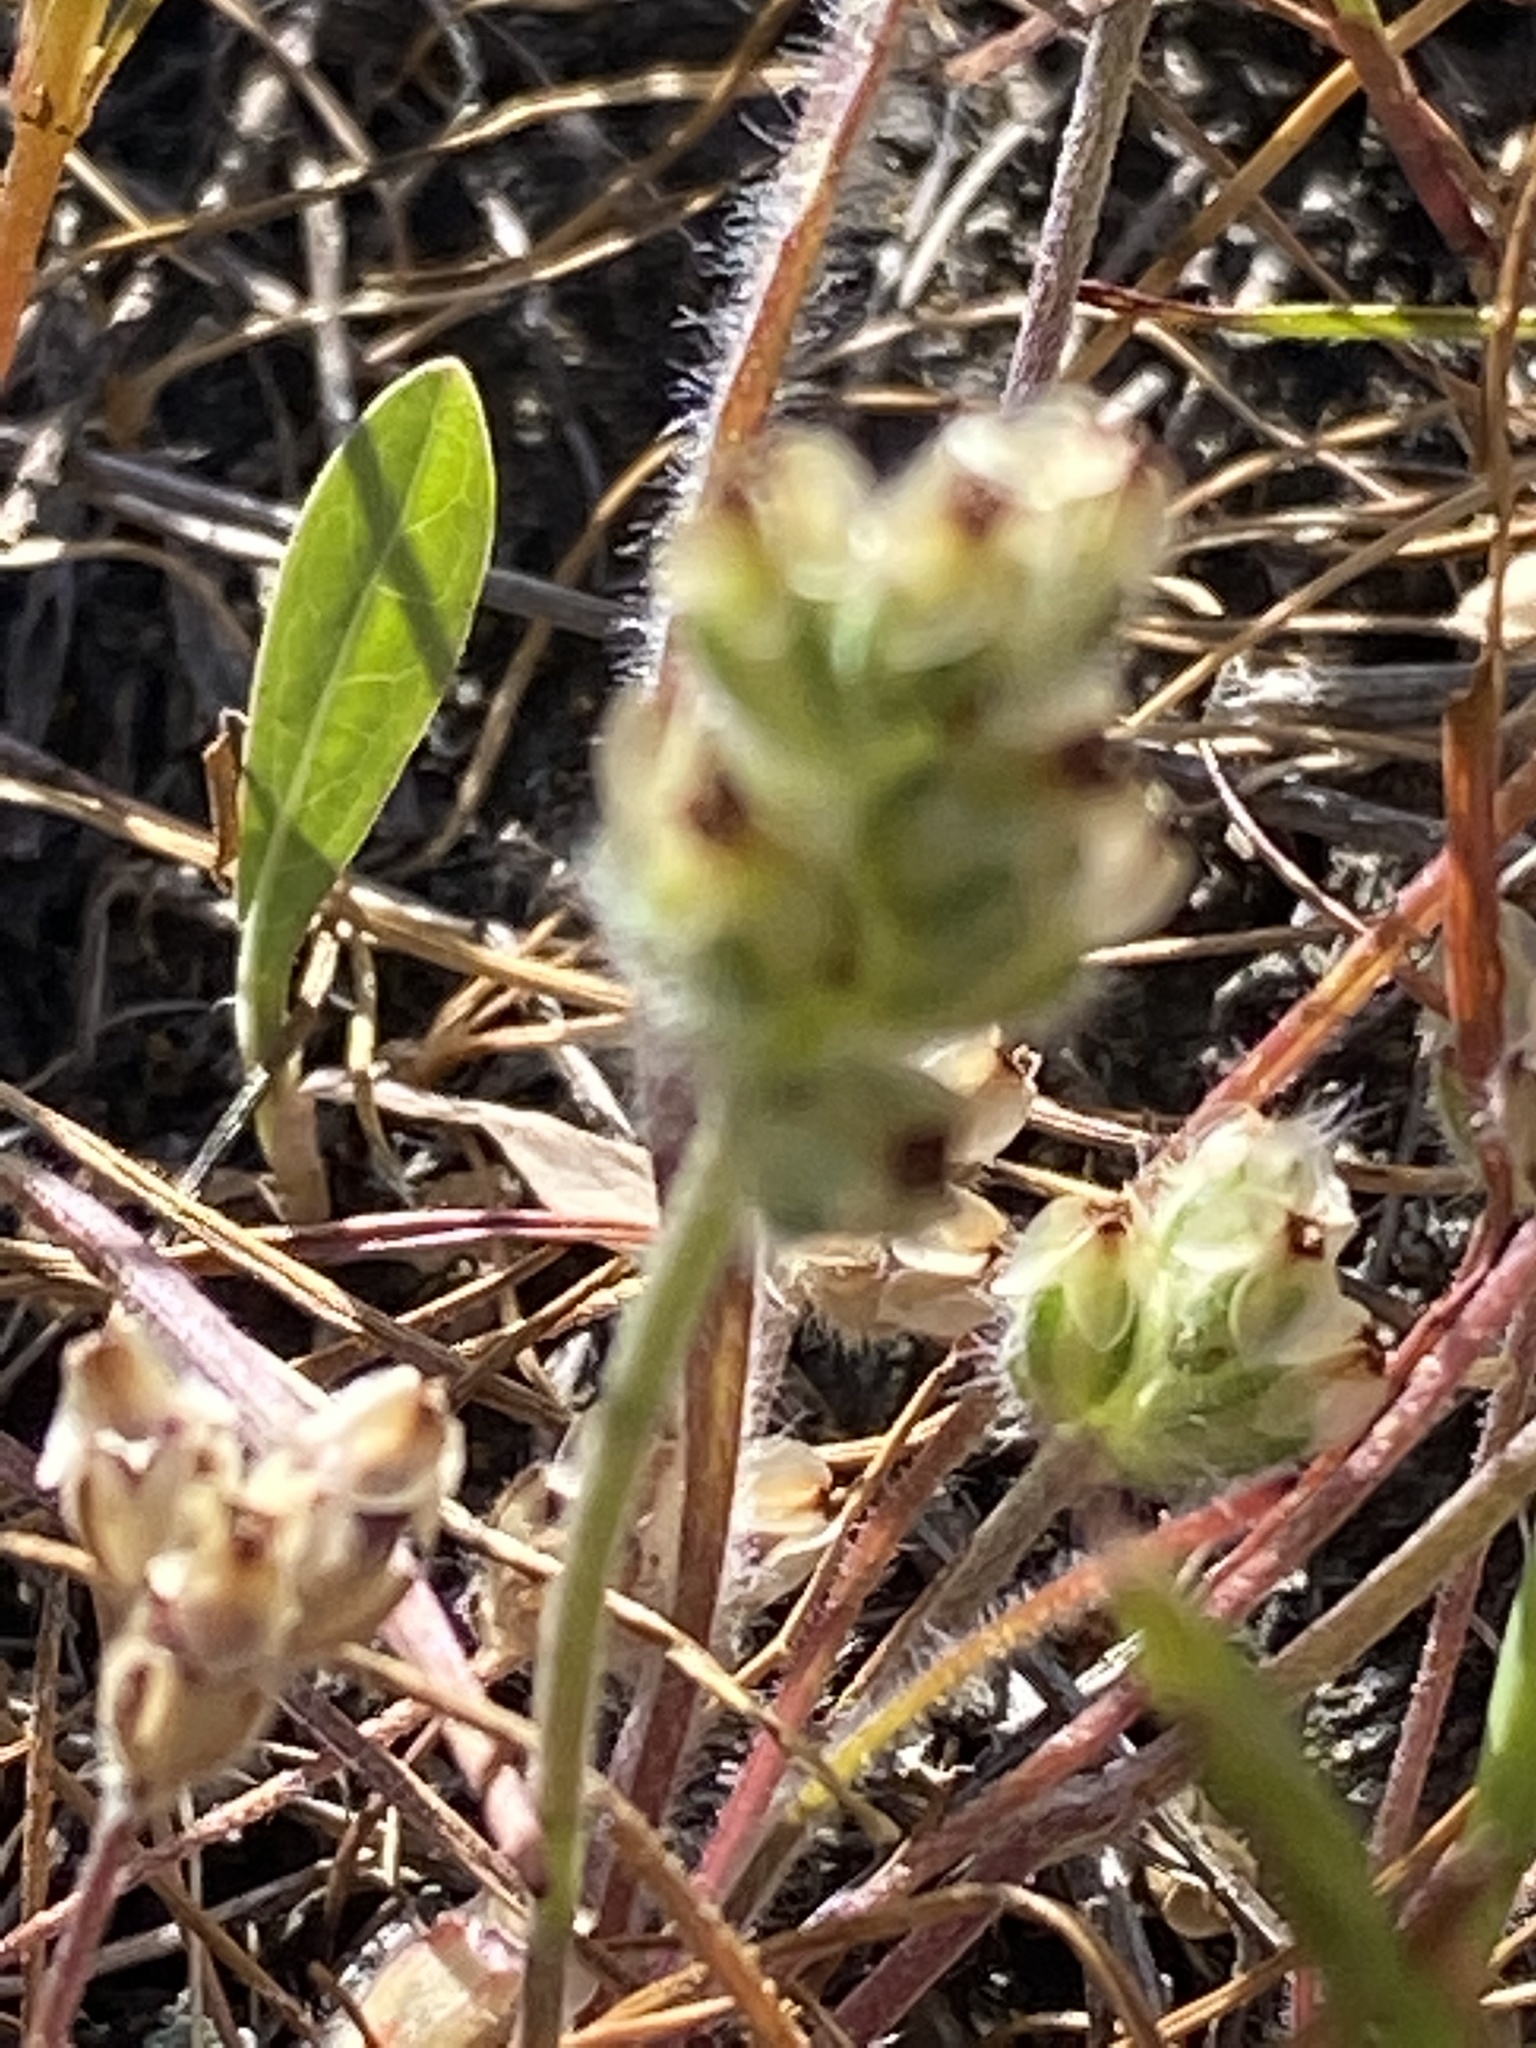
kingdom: Plantae
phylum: Tracheophyta
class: Magnoliopsida
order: Lamiales
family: Plantaginaceae
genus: Plantago
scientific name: Plantago erecta
